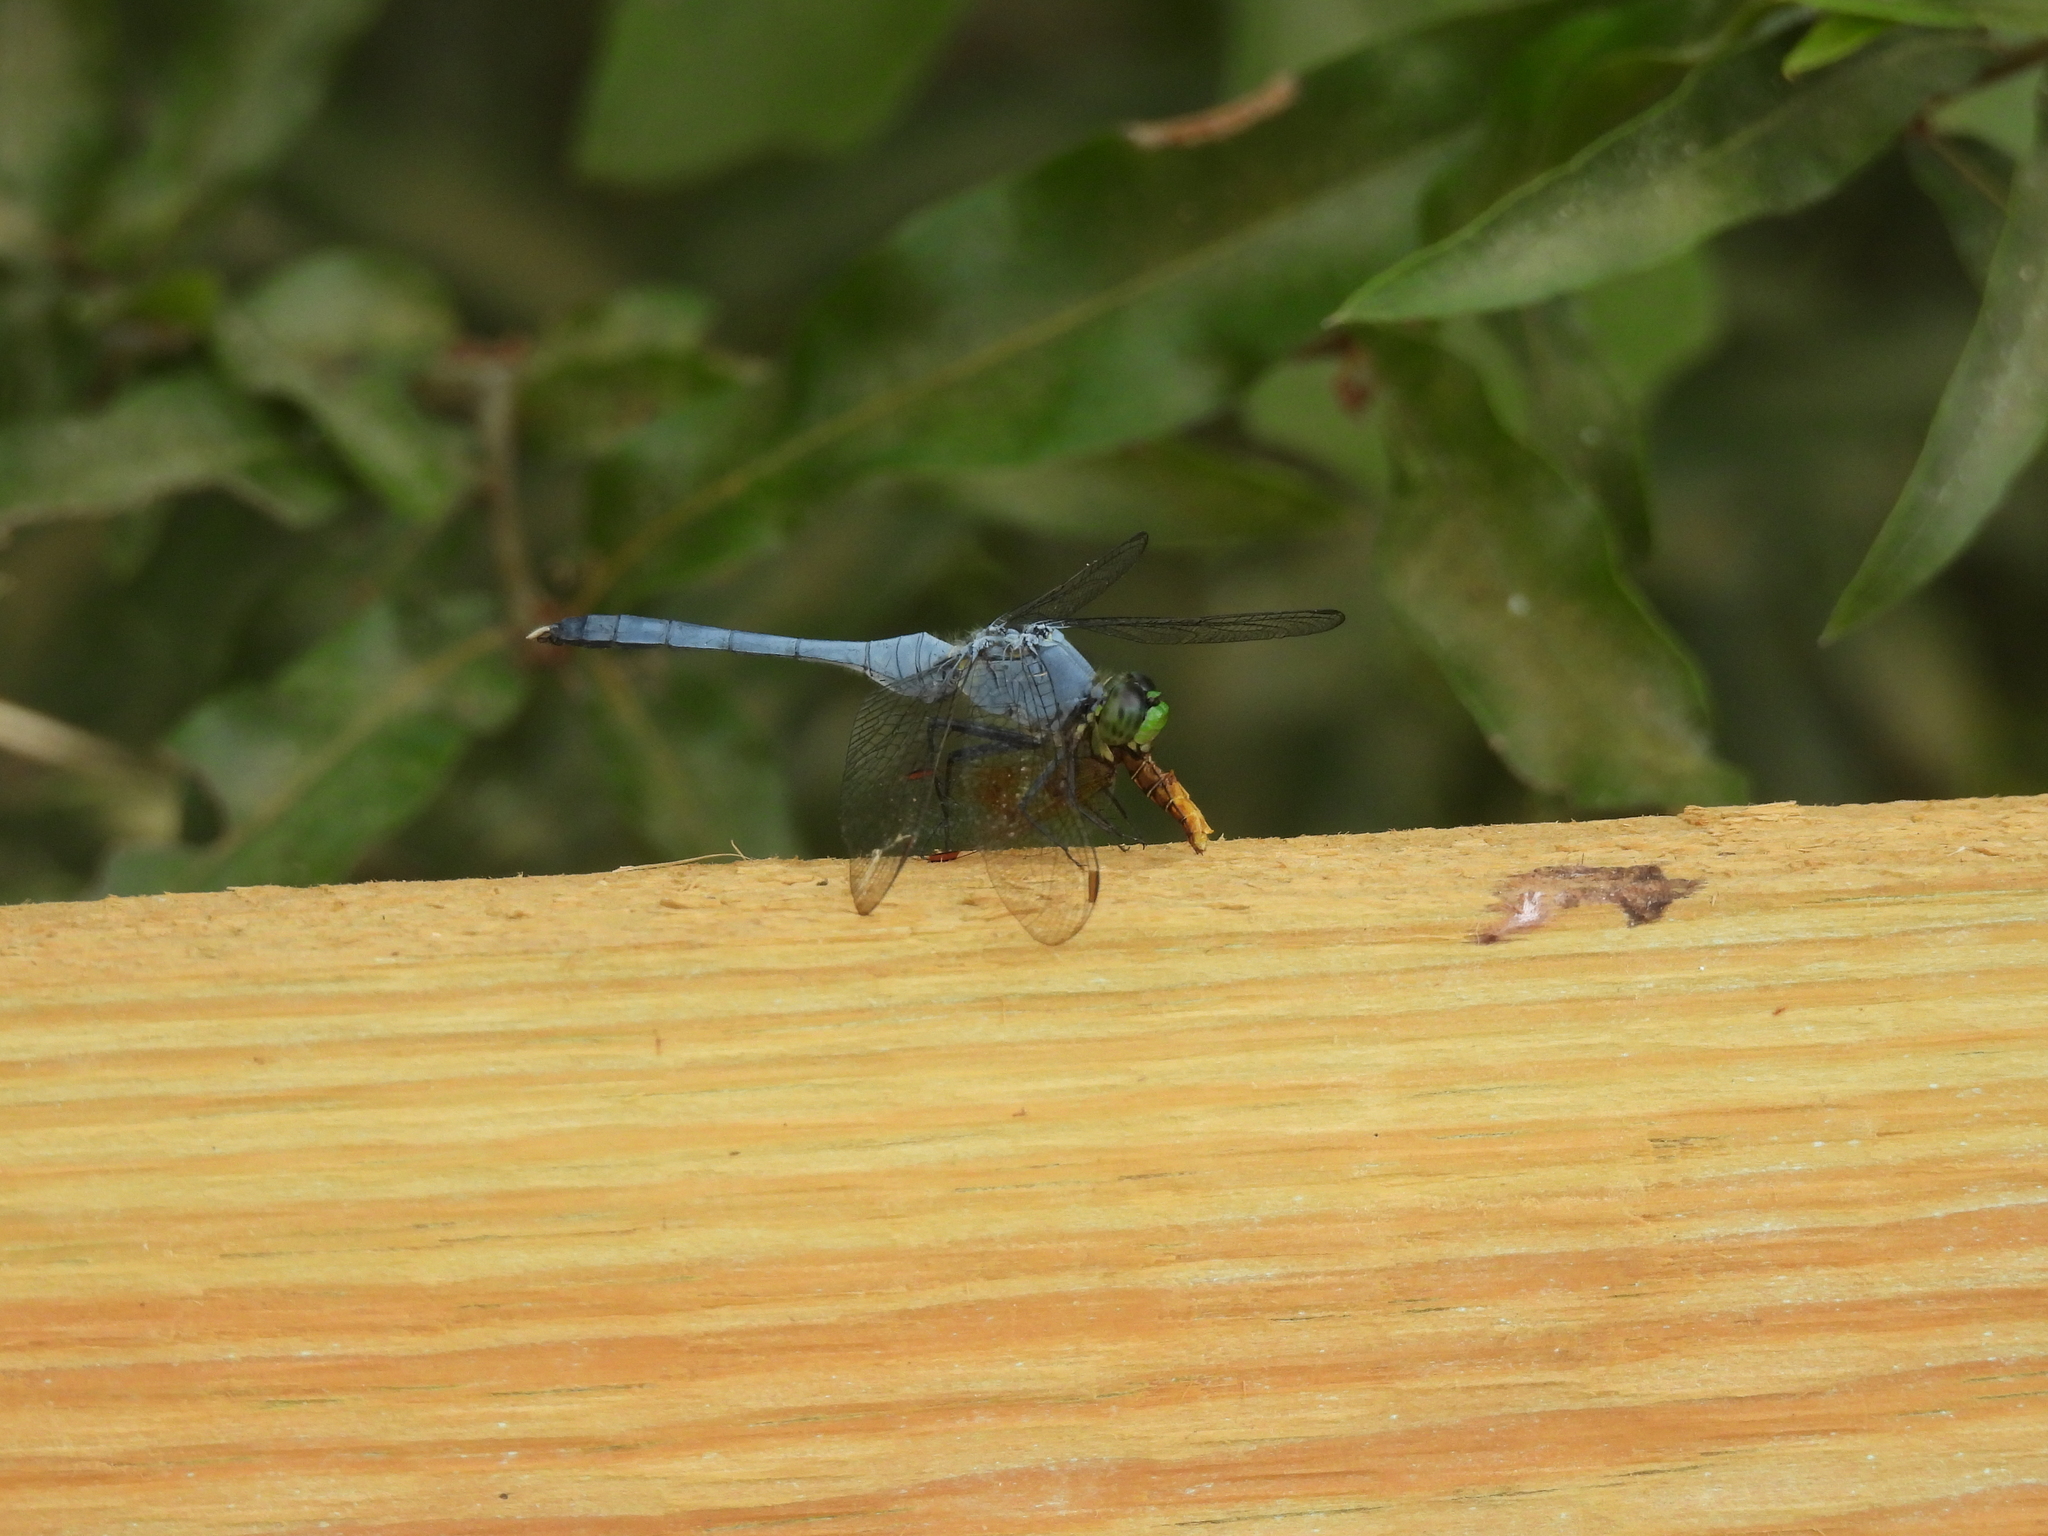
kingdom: Animalia
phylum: Arthropoda
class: Insecta
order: Odonata
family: Libellulidae
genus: Erythemis
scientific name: Erythemis simplicicollis
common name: Eastern pondhawk
